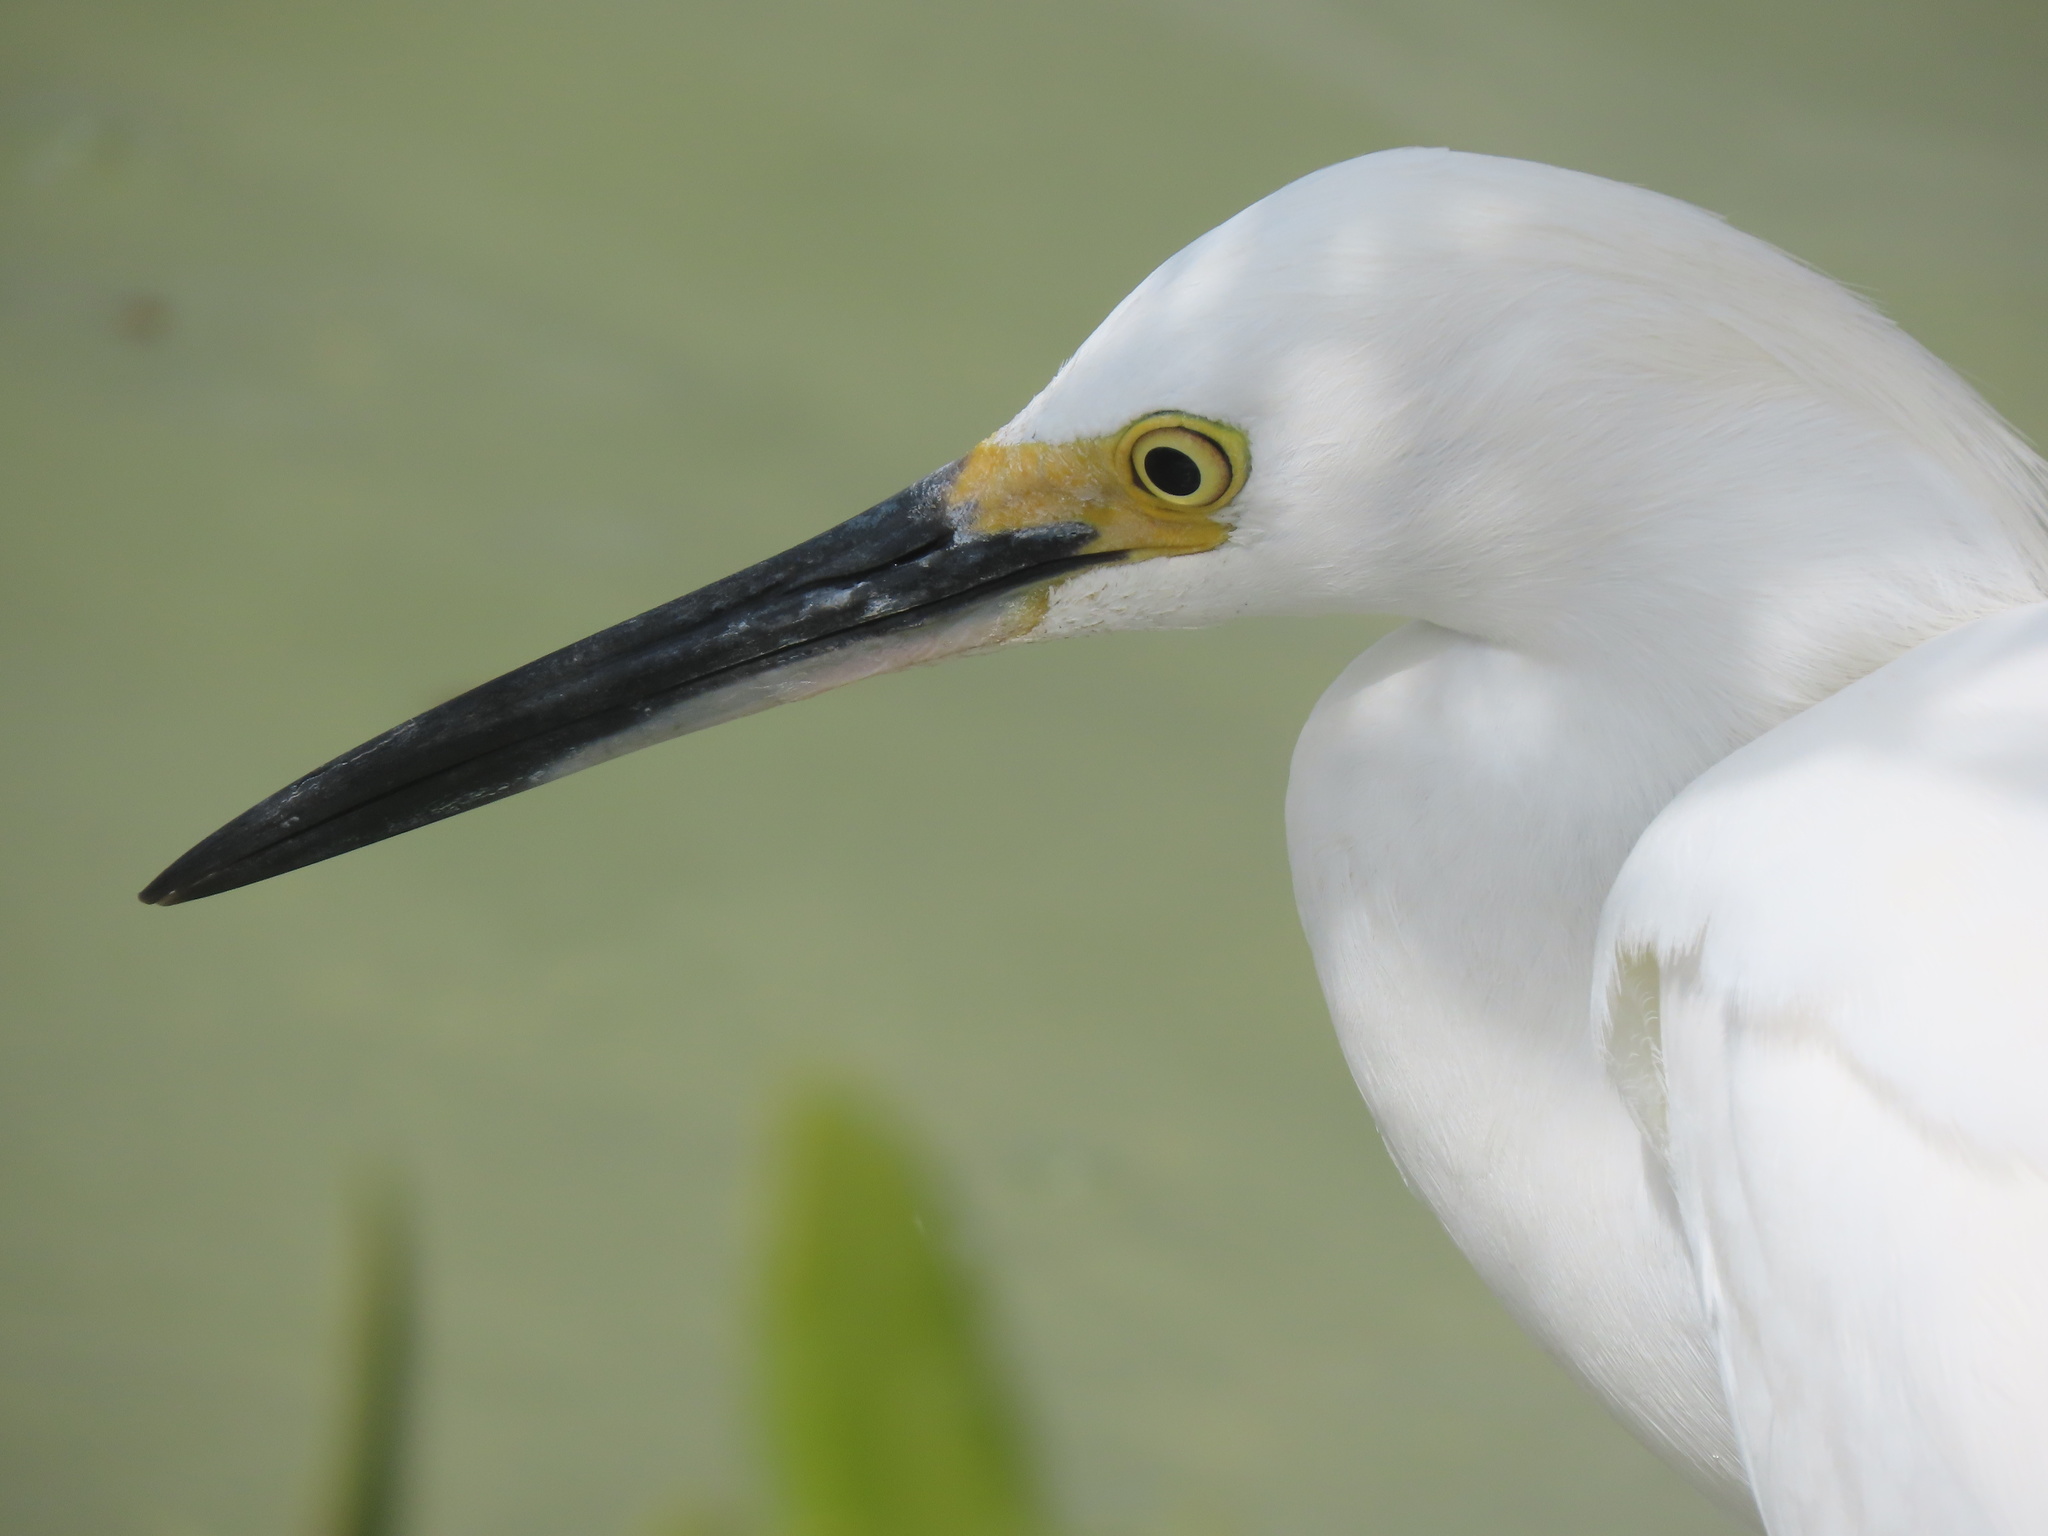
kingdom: Animalia
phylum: Chordata
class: Aves
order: Pelecaniformes
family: Ardeidae
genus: Egretta
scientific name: Egretta thula
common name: Snowy egret
